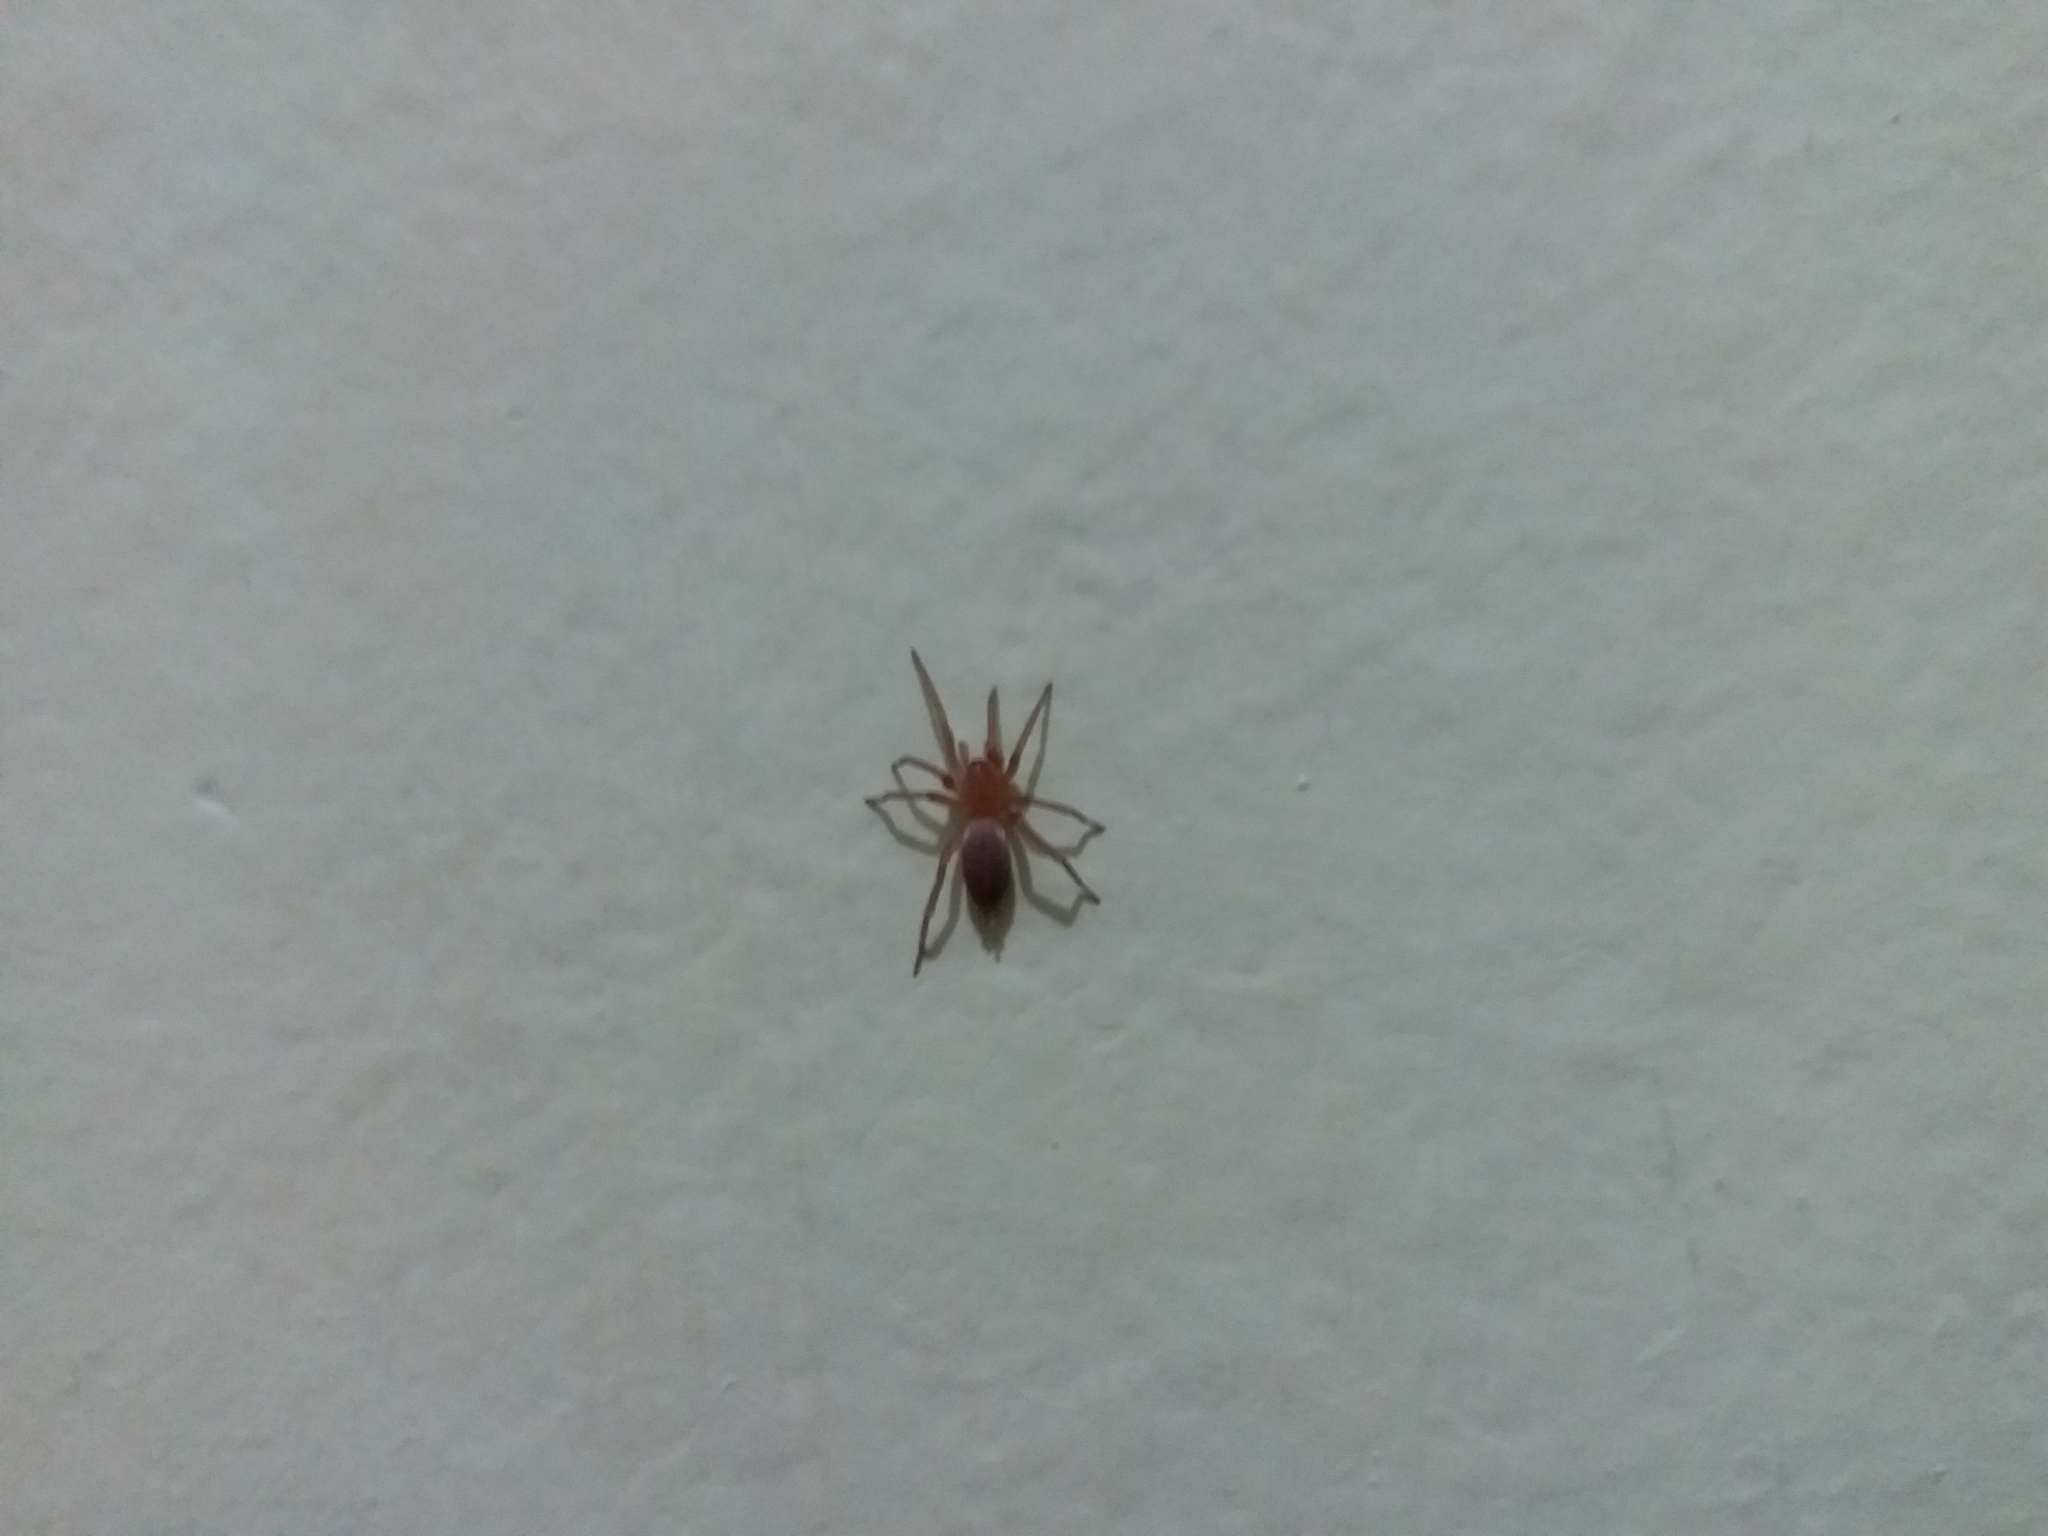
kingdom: Animalia
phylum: Arthropoda
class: Arachnida
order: Araneae
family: Gnaphosidae
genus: Scotophaeus
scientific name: Scotophaeus blackwalli
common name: Mouse spider
